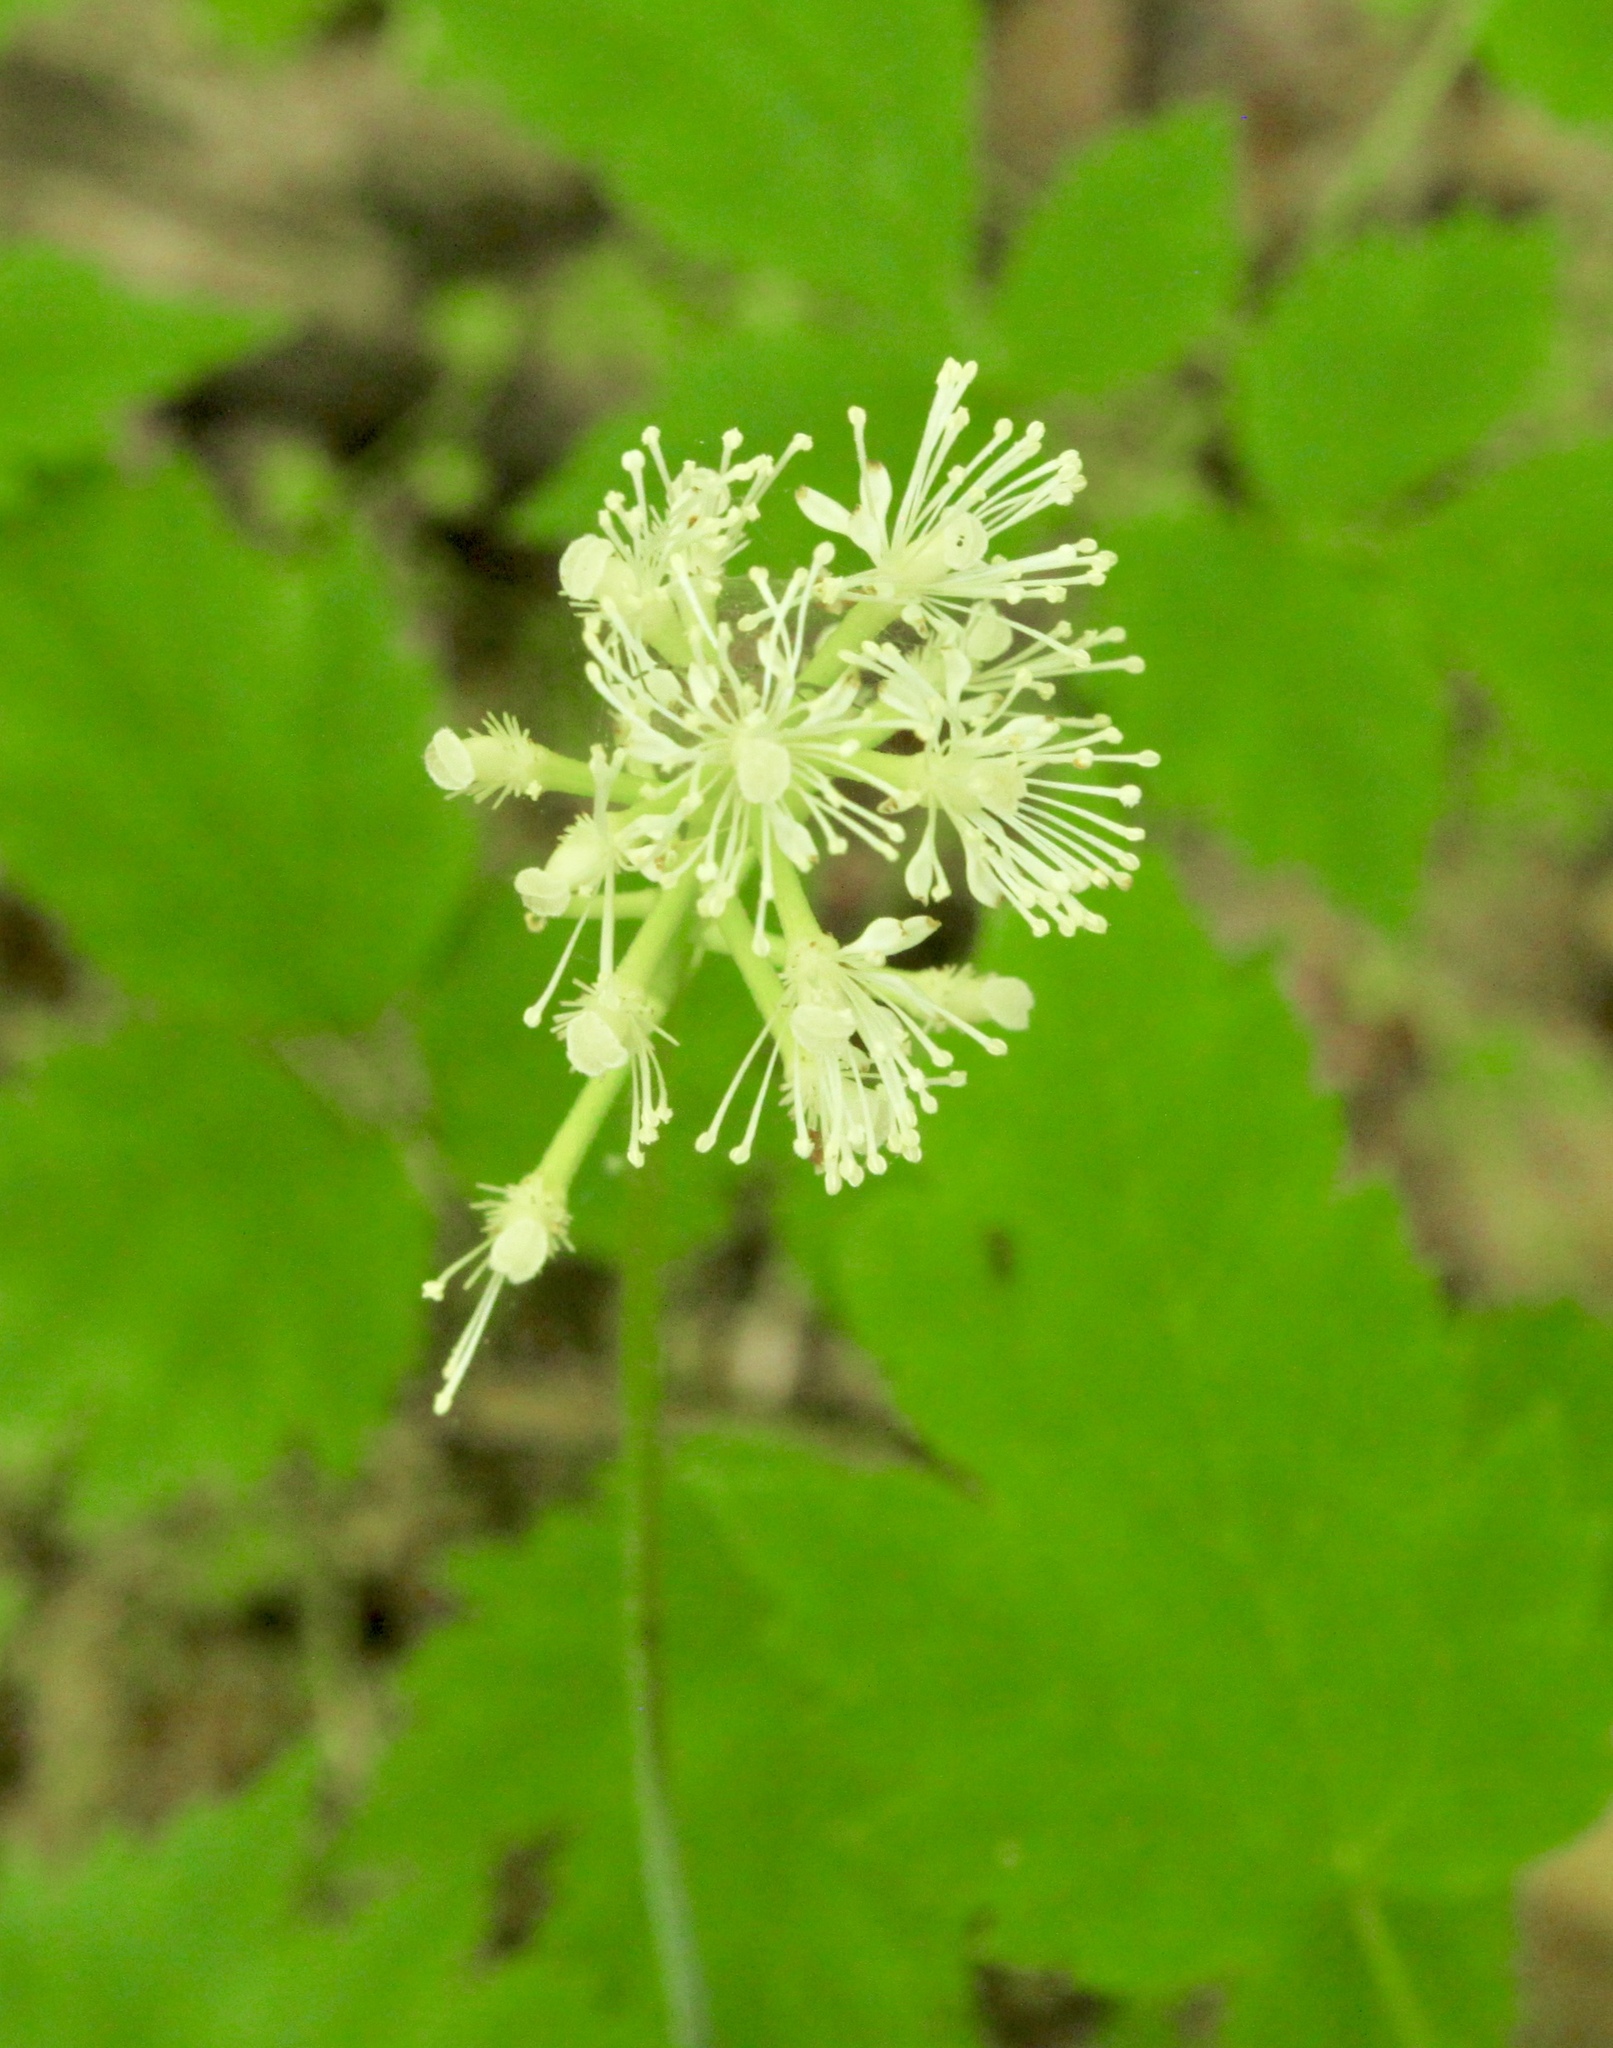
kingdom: Plantae
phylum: Tracheophyta
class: Magnoliopsida
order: Ranunculales
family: Ranunculaceae
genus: Actaea
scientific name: Actaea pachypoda
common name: Doll's-eyes
